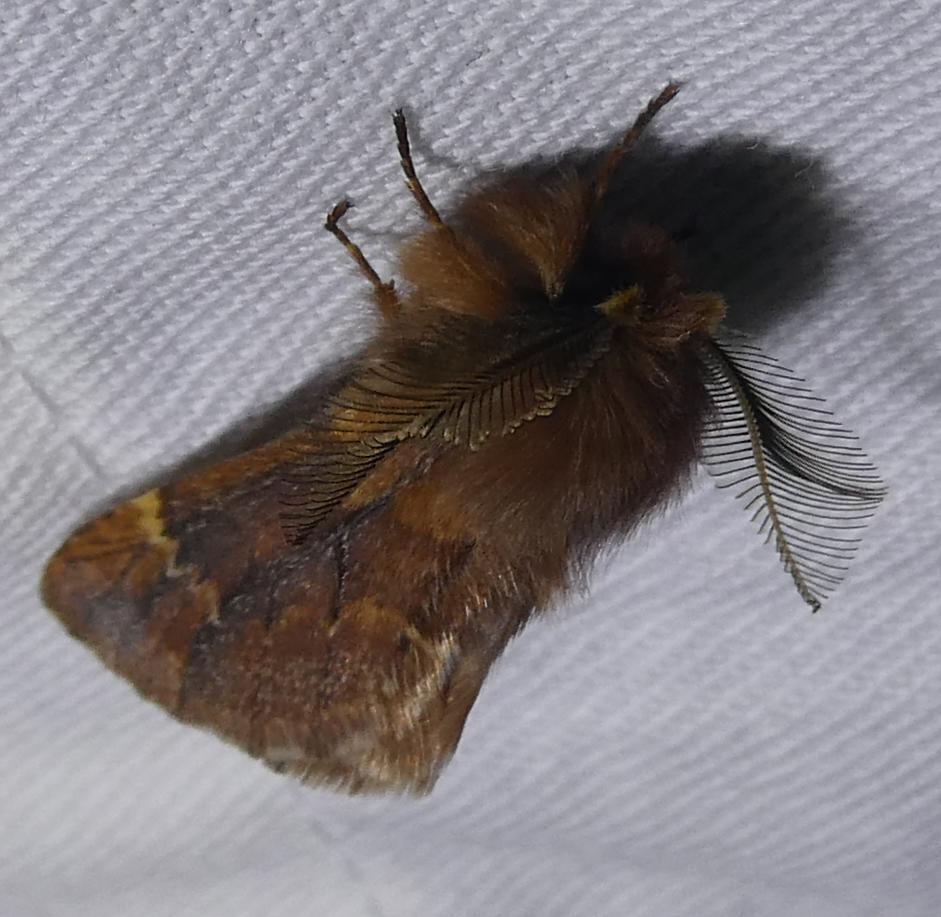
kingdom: Animalia
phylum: Arthropoda
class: Insecta
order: Lepidoptera
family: Notodontidae
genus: Ptilophora
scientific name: Ptilophora plumigera
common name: Plumed prominent
